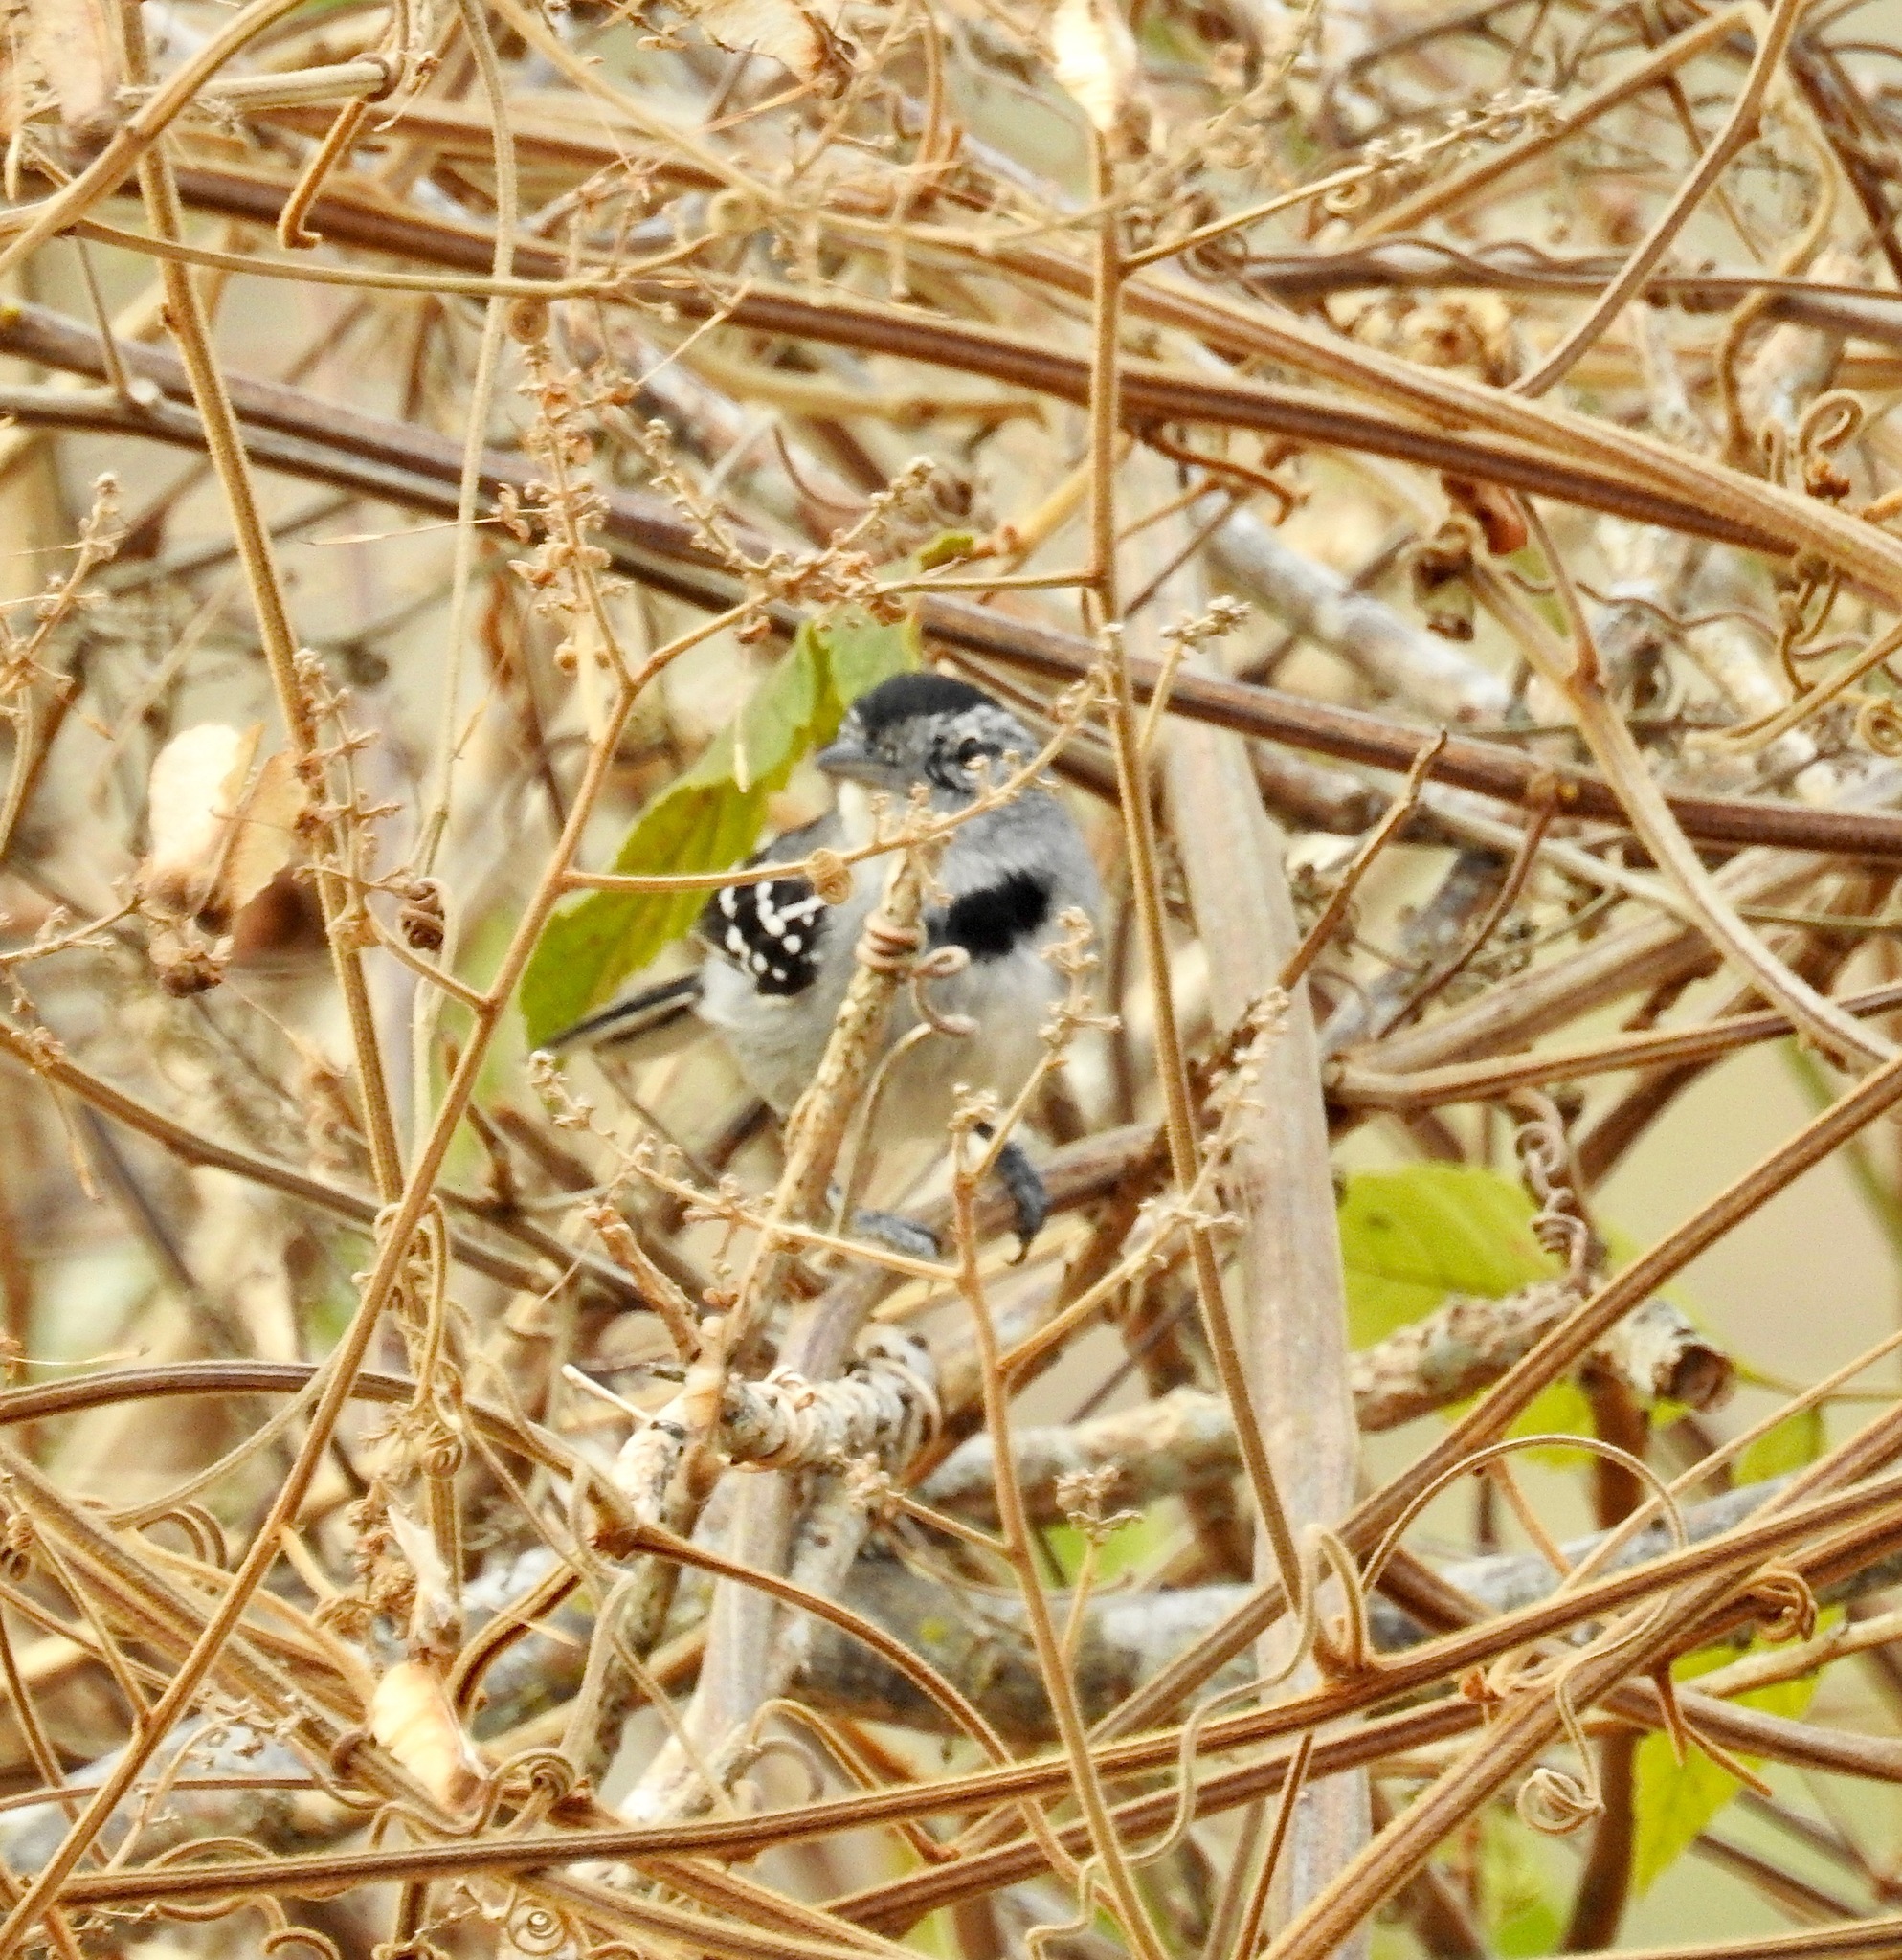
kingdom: Animalia
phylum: Chordata
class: Aves
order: Passeriformes
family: Thamnophilidae
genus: Herpsilochmus
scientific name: Herpsilochmus pectoralis
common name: Pectoral antwren
